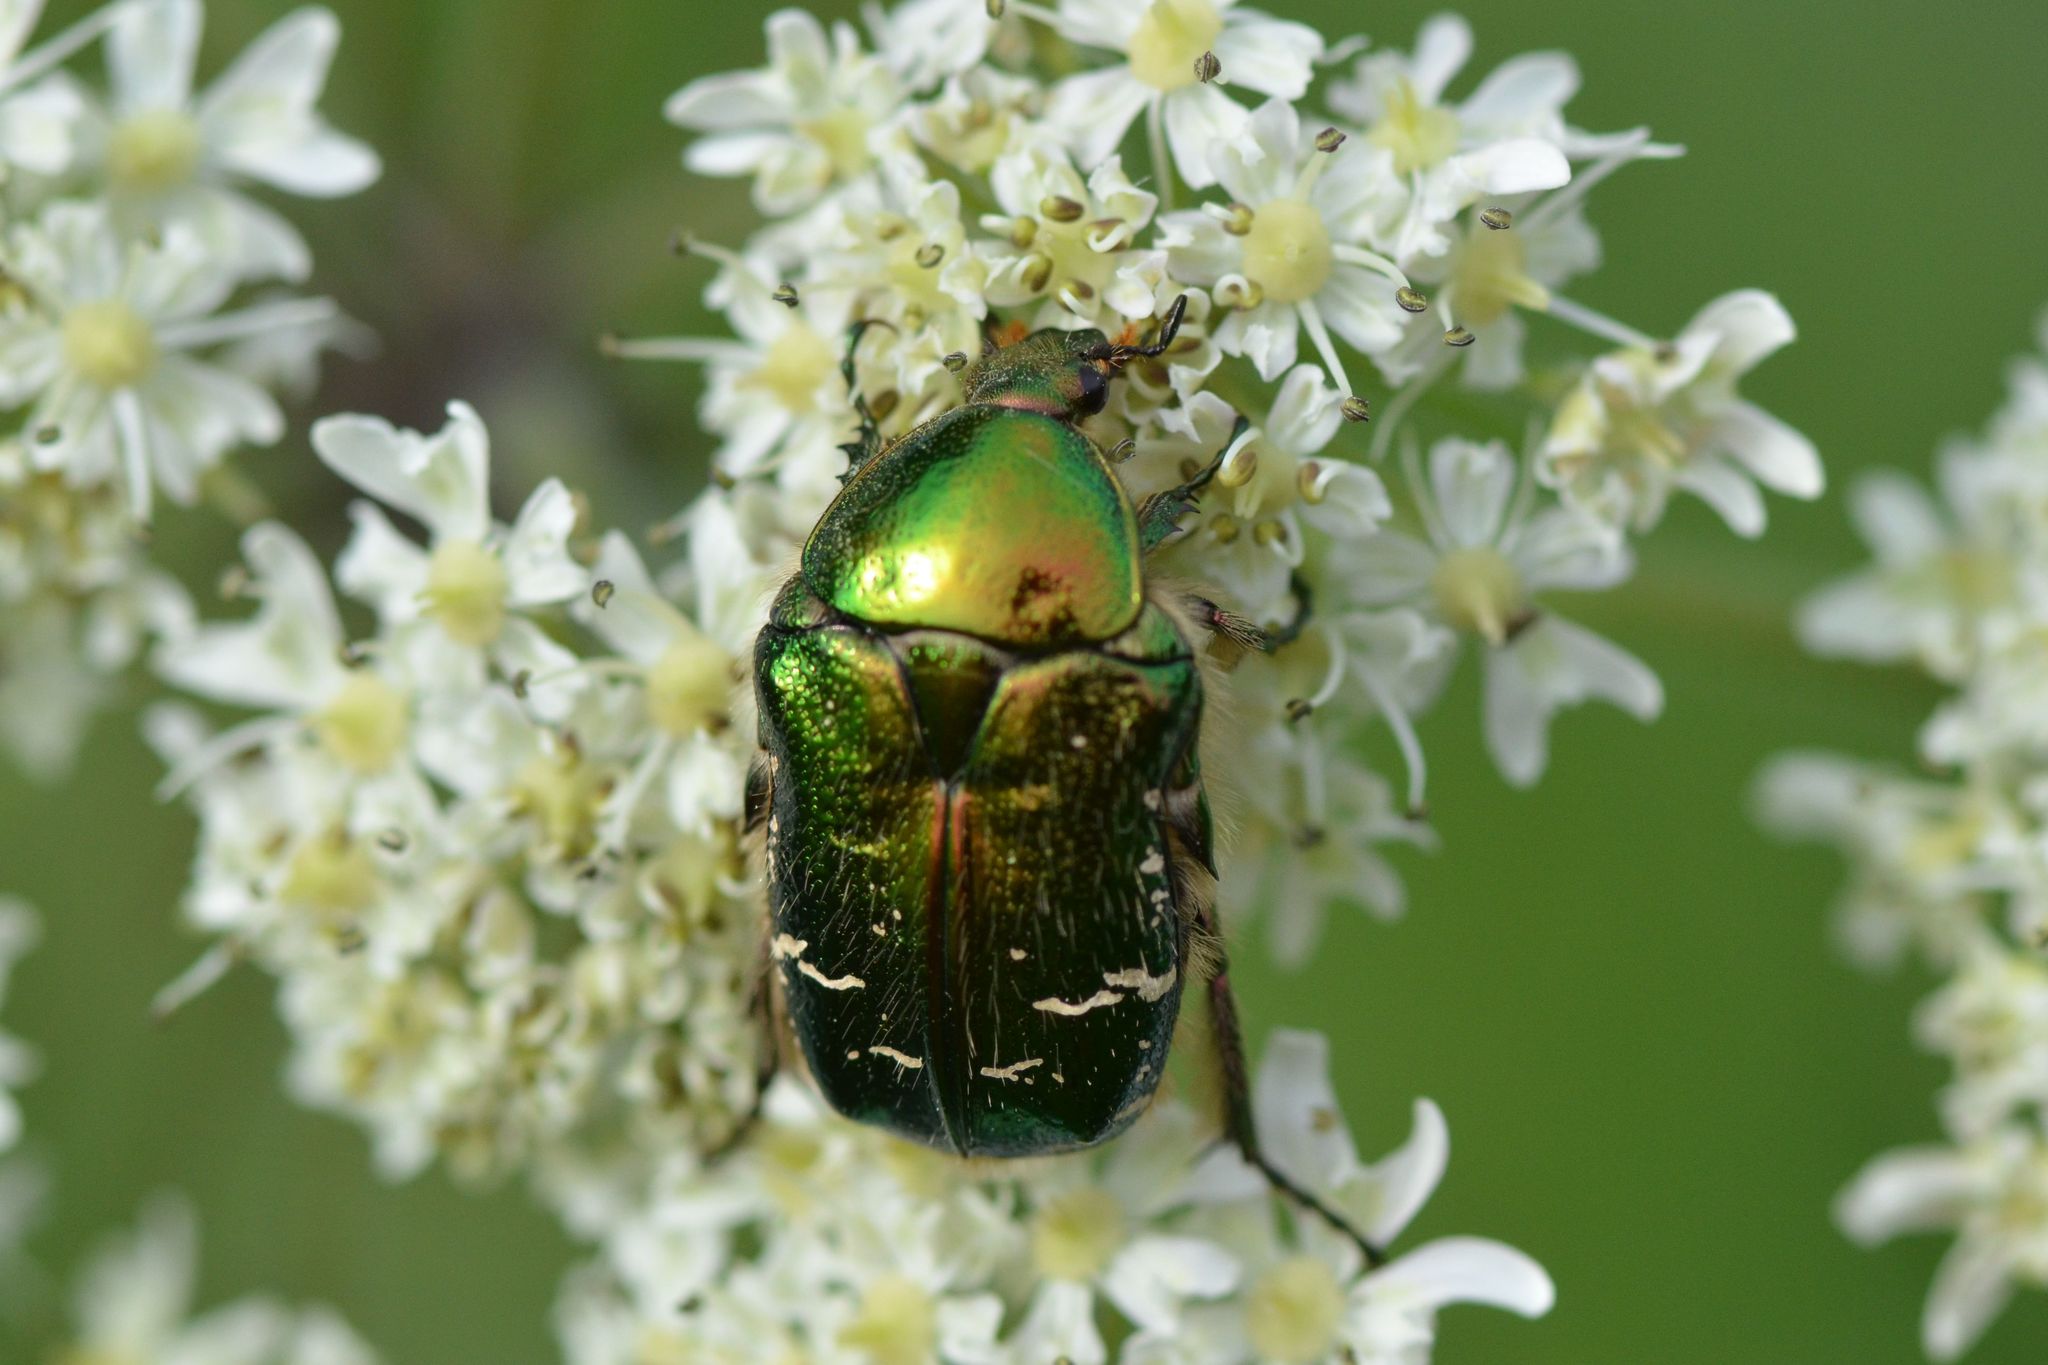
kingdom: Animalia
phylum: Arthropoda
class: Insecta
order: Coleoptera
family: Scarabaeidae
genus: Cetonia
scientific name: Cetonia aurata
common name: Rose chafer
